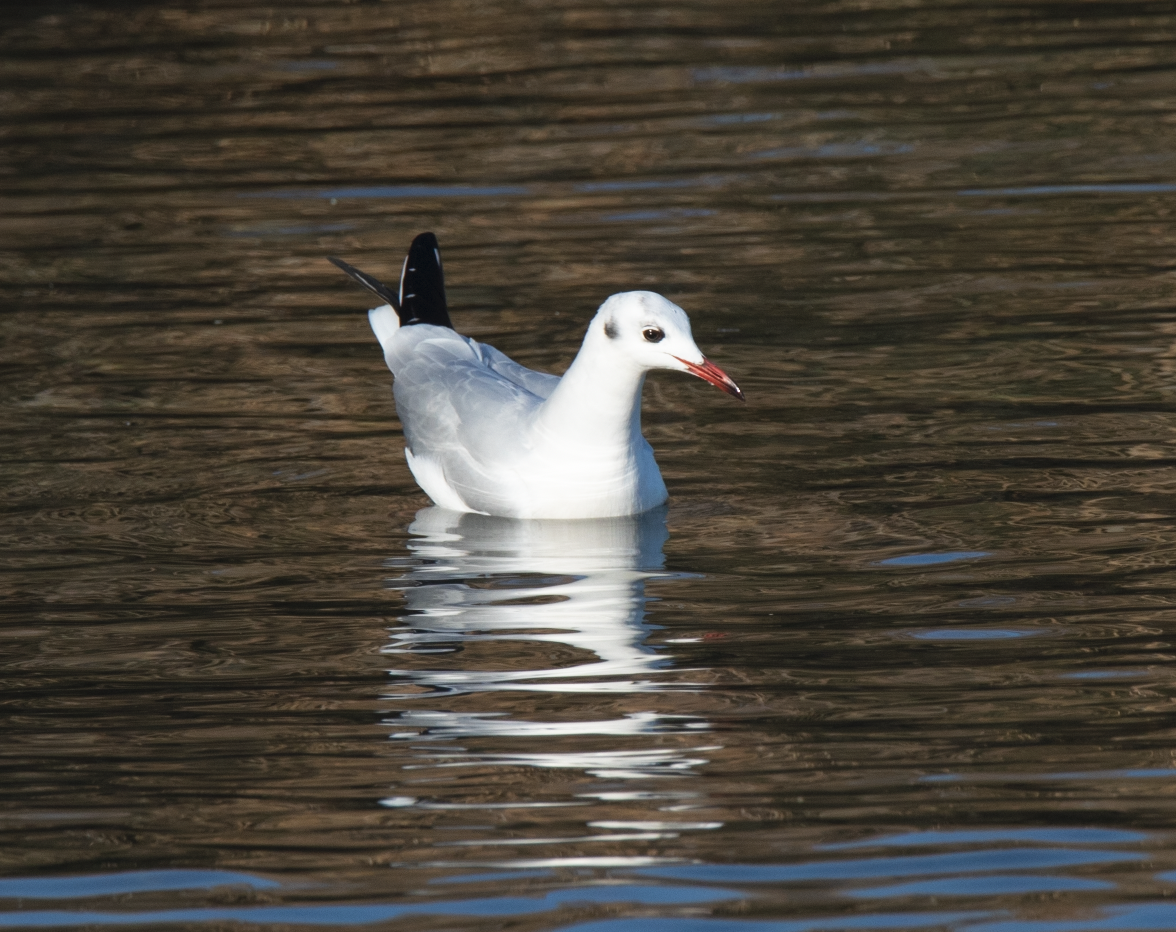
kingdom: Animalia
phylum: Chordata
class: Aves
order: Charadriiformes
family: Laridae
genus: Chroicocephalus
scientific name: Chroicocephalus ridibundus
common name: Black-headed gull
